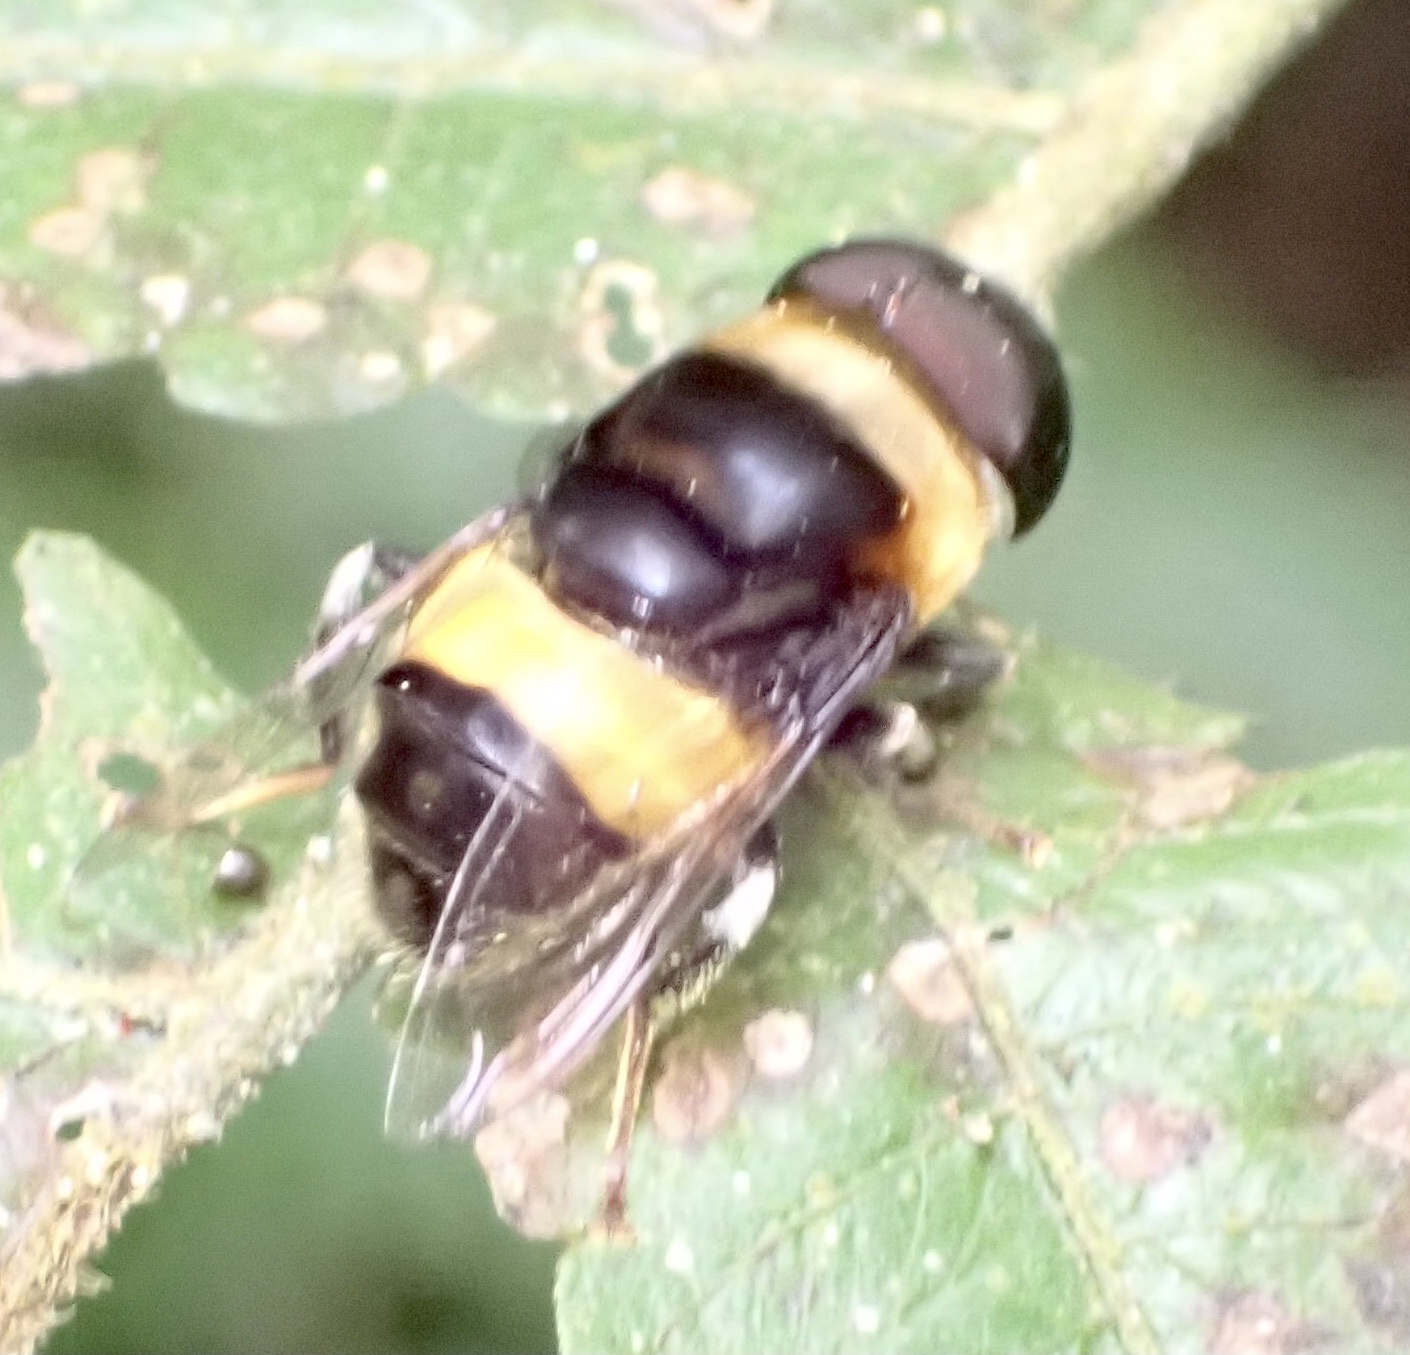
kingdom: Animalia
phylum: Arthropoda
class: Insecta
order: Diptera
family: Syrphidae
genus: Phytomia
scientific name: Phytomia natalensis
